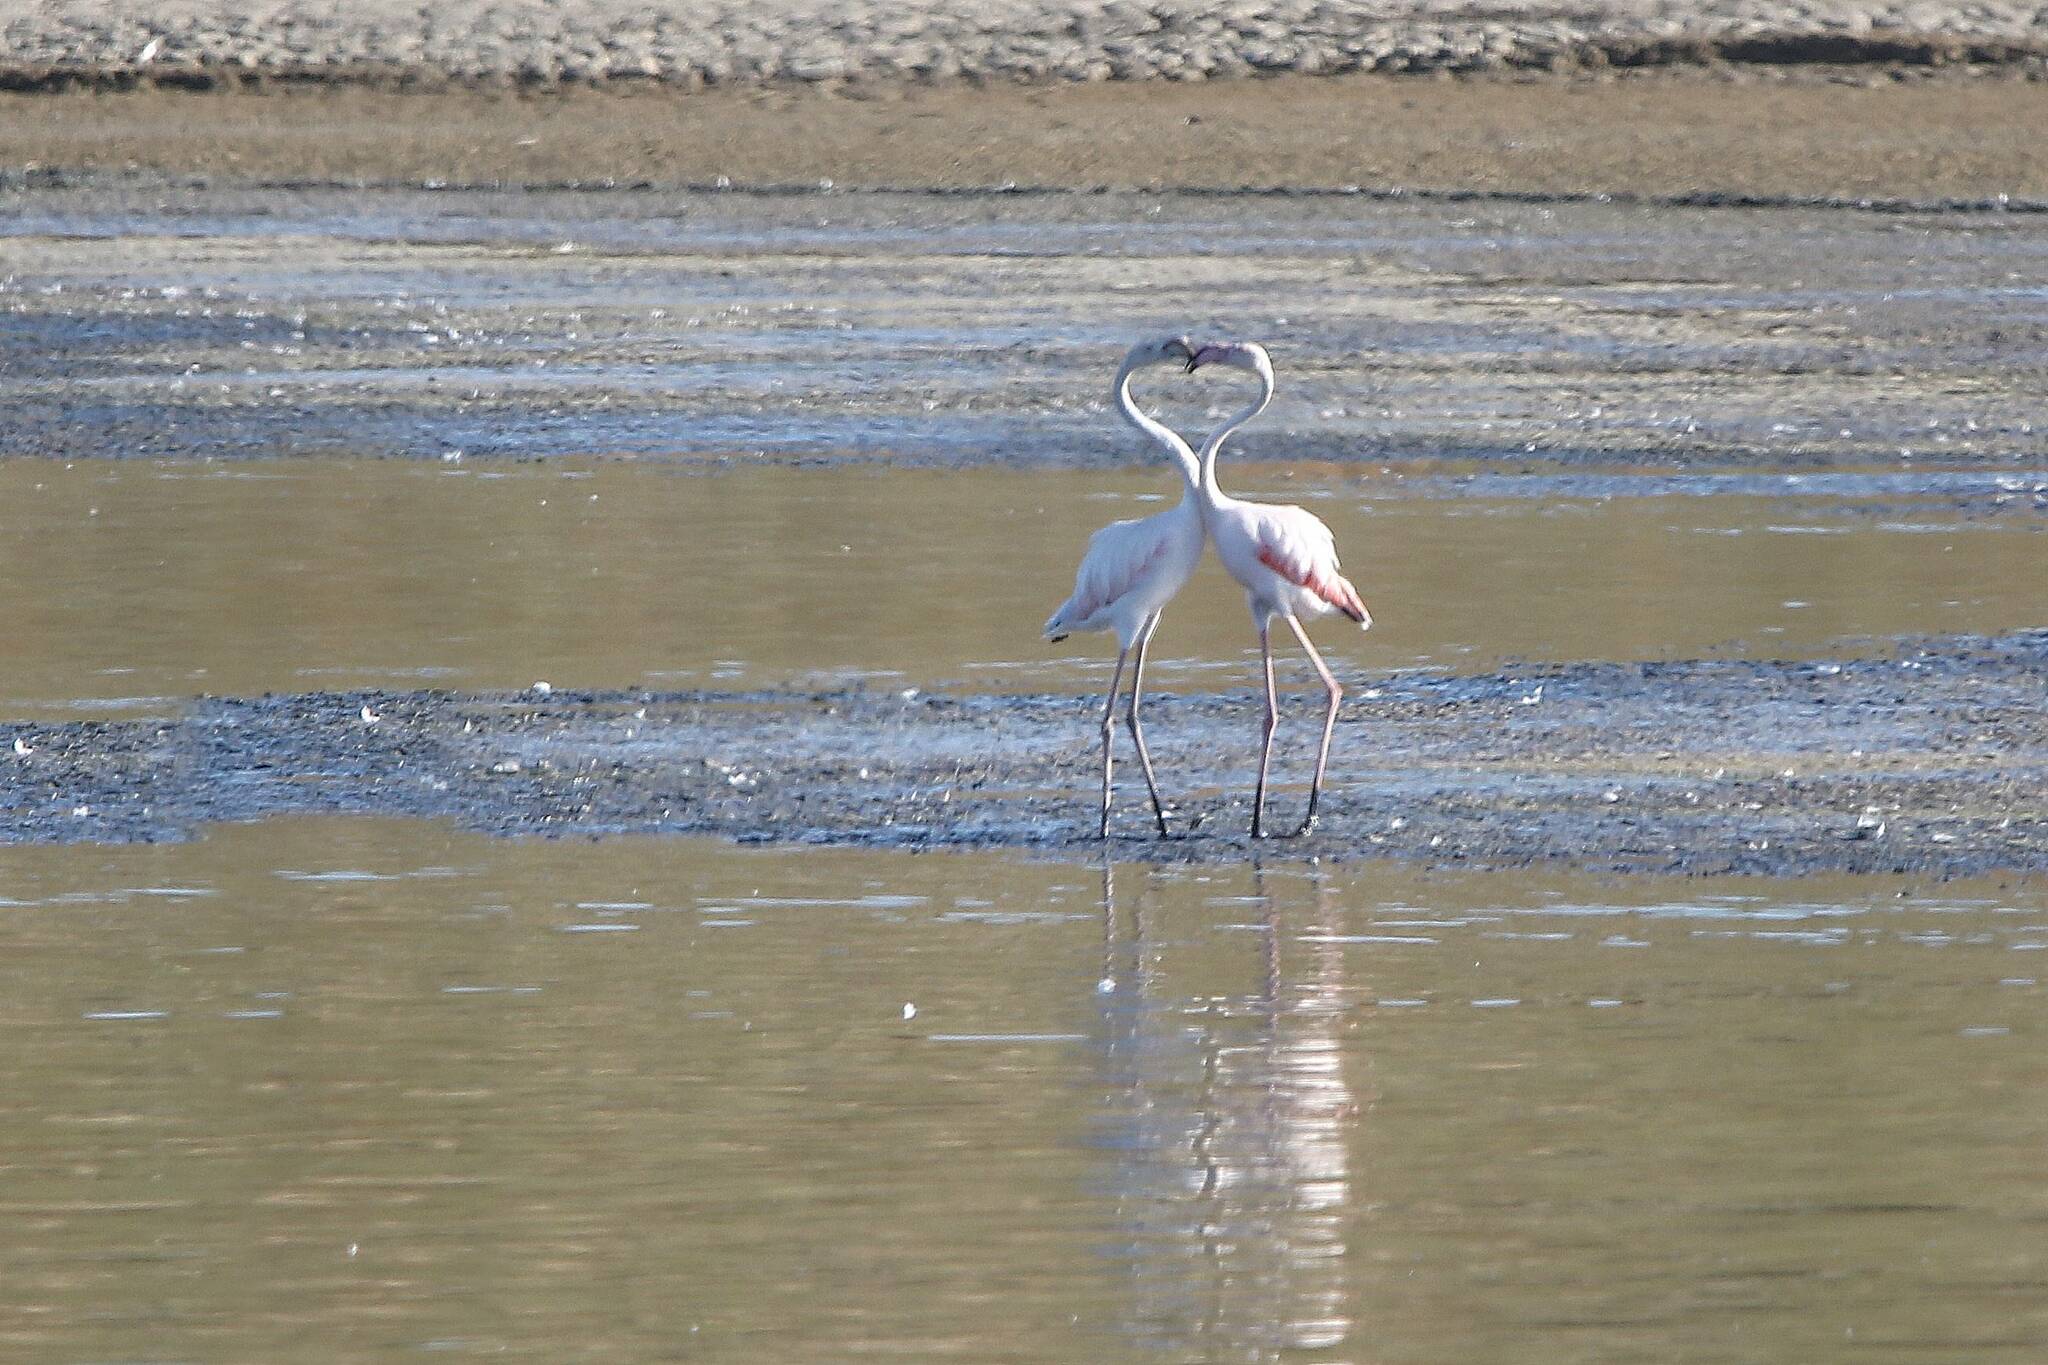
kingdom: Animalia
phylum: Chordata
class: Aves
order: Phoenicopteriformes
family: Phoenicopteridae
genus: Phoenicopterus
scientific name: Phoenicopterus roseus
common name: Greater flamingo
